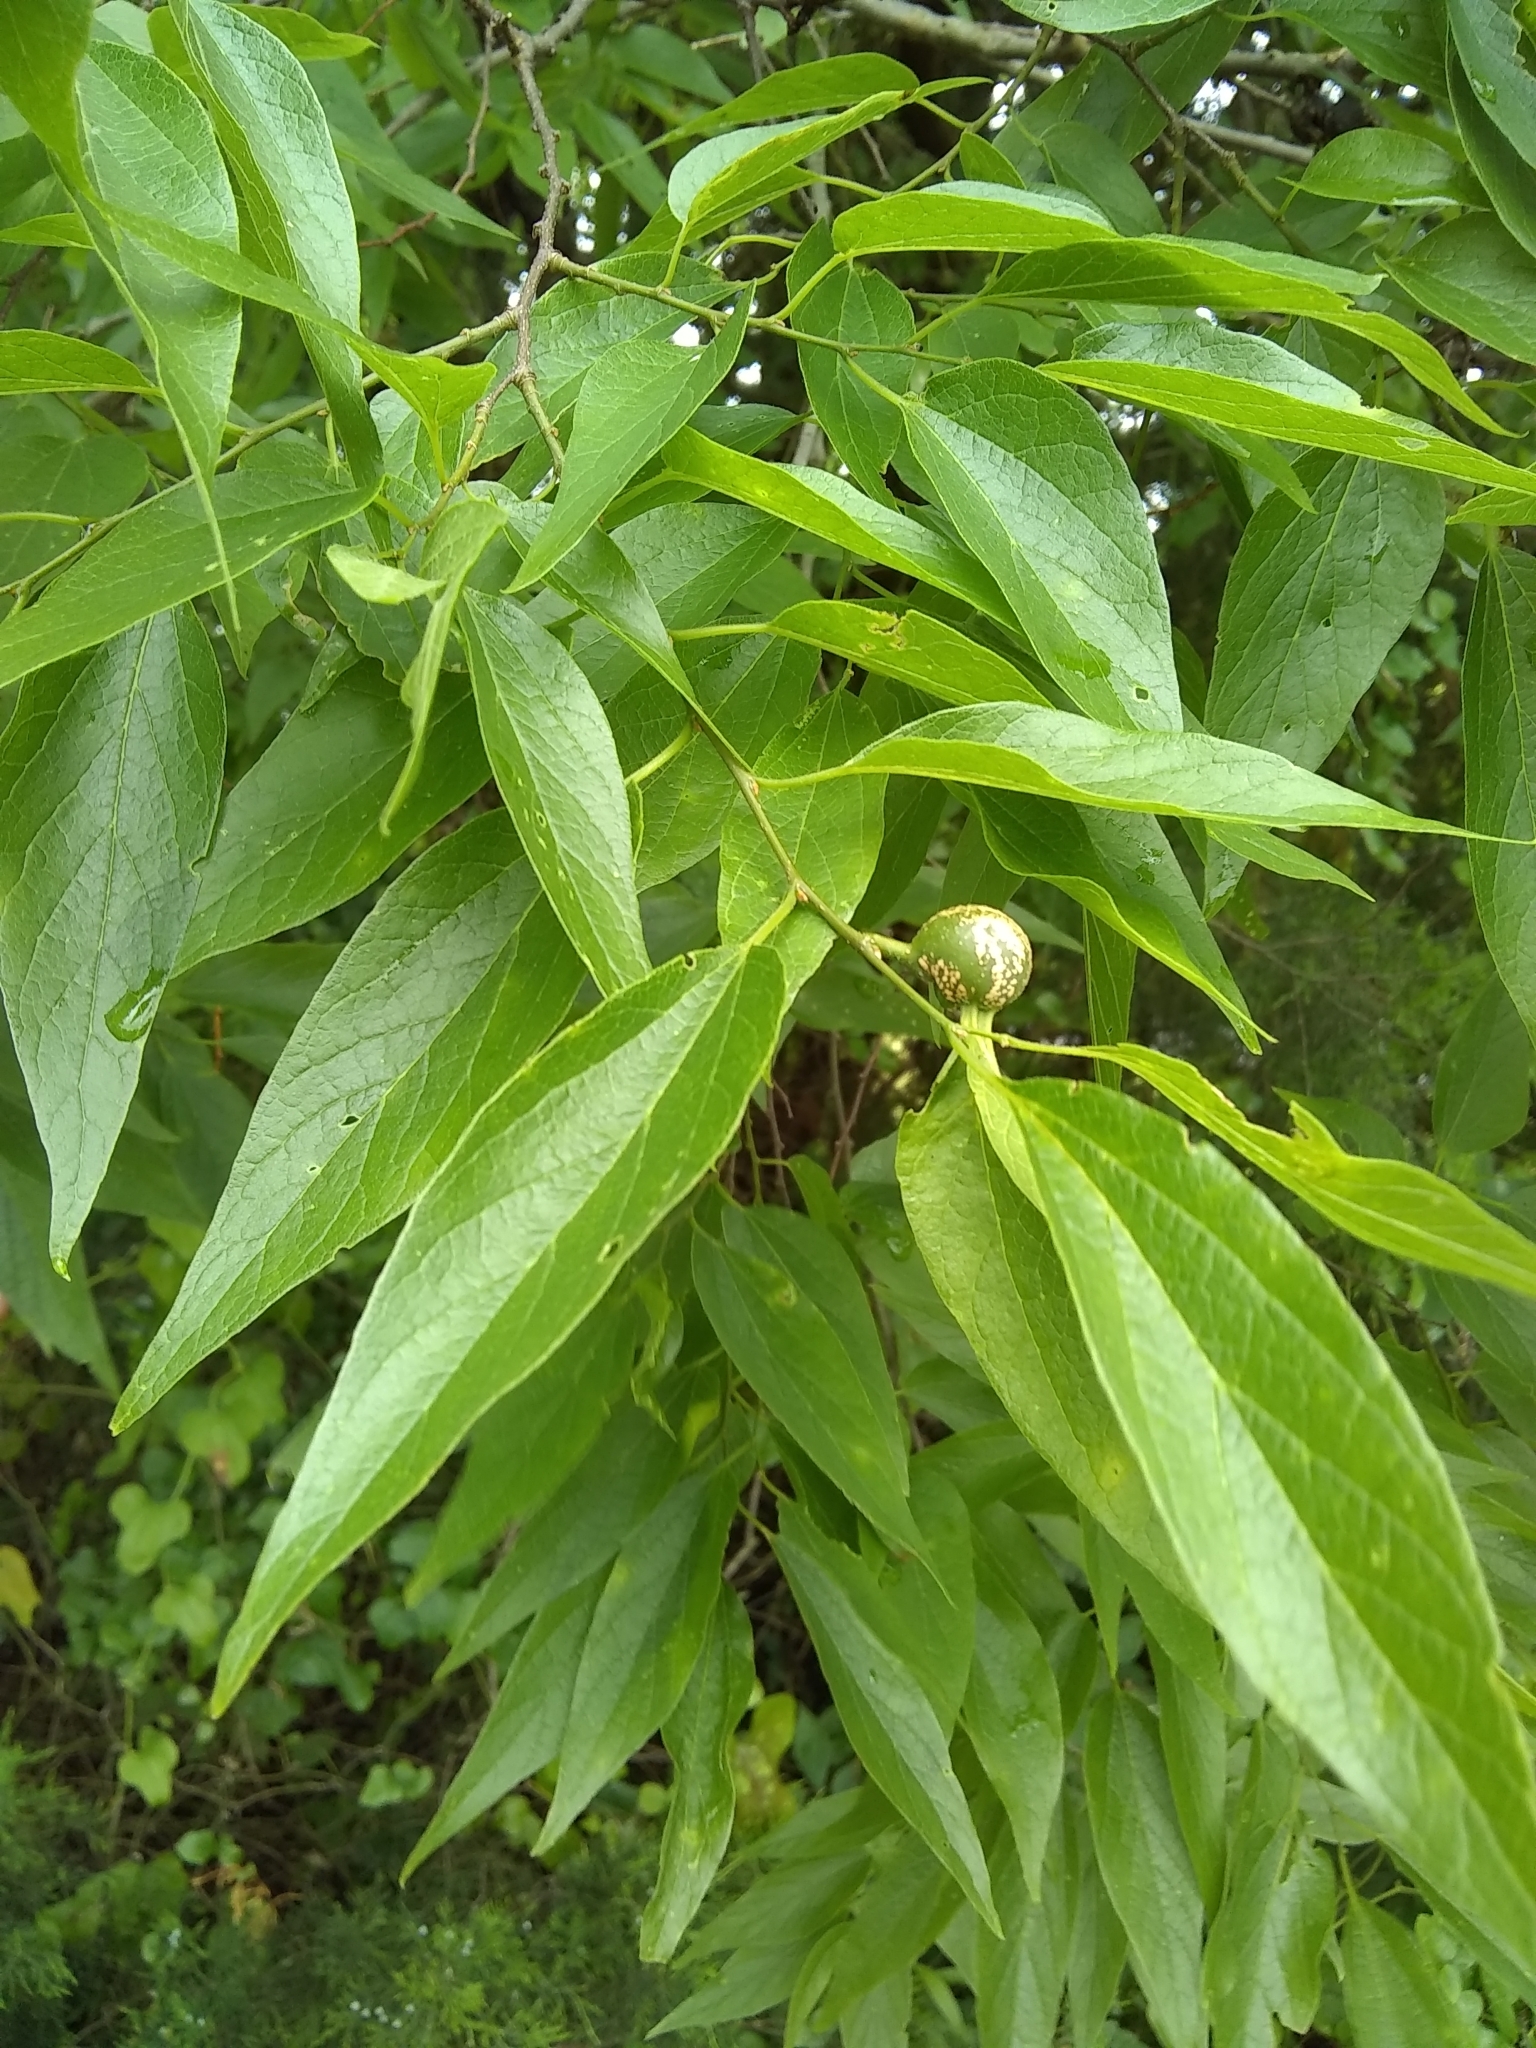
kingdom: Plantae
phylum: Tracheophyta
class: Magnoliopsida
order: Rosales
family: Cannabaceae
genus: Celtis
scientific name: Celtis laevigata
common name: Sugarberry
